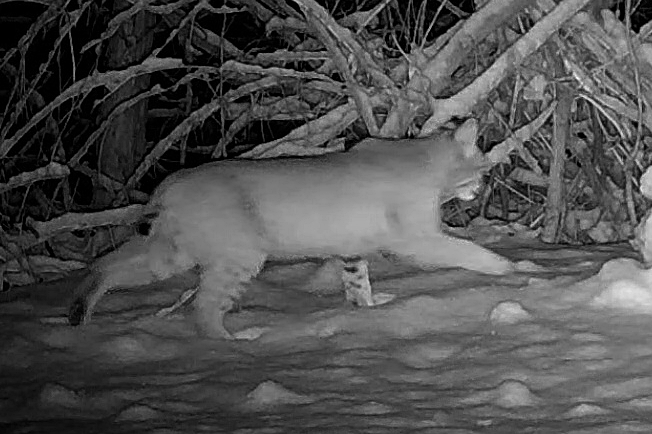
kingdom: Animalia
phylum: Chordata
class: Mammalia
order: Carnivora
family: Felidae
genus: Lynx
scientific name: Lynx rufus
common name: Bobcat
